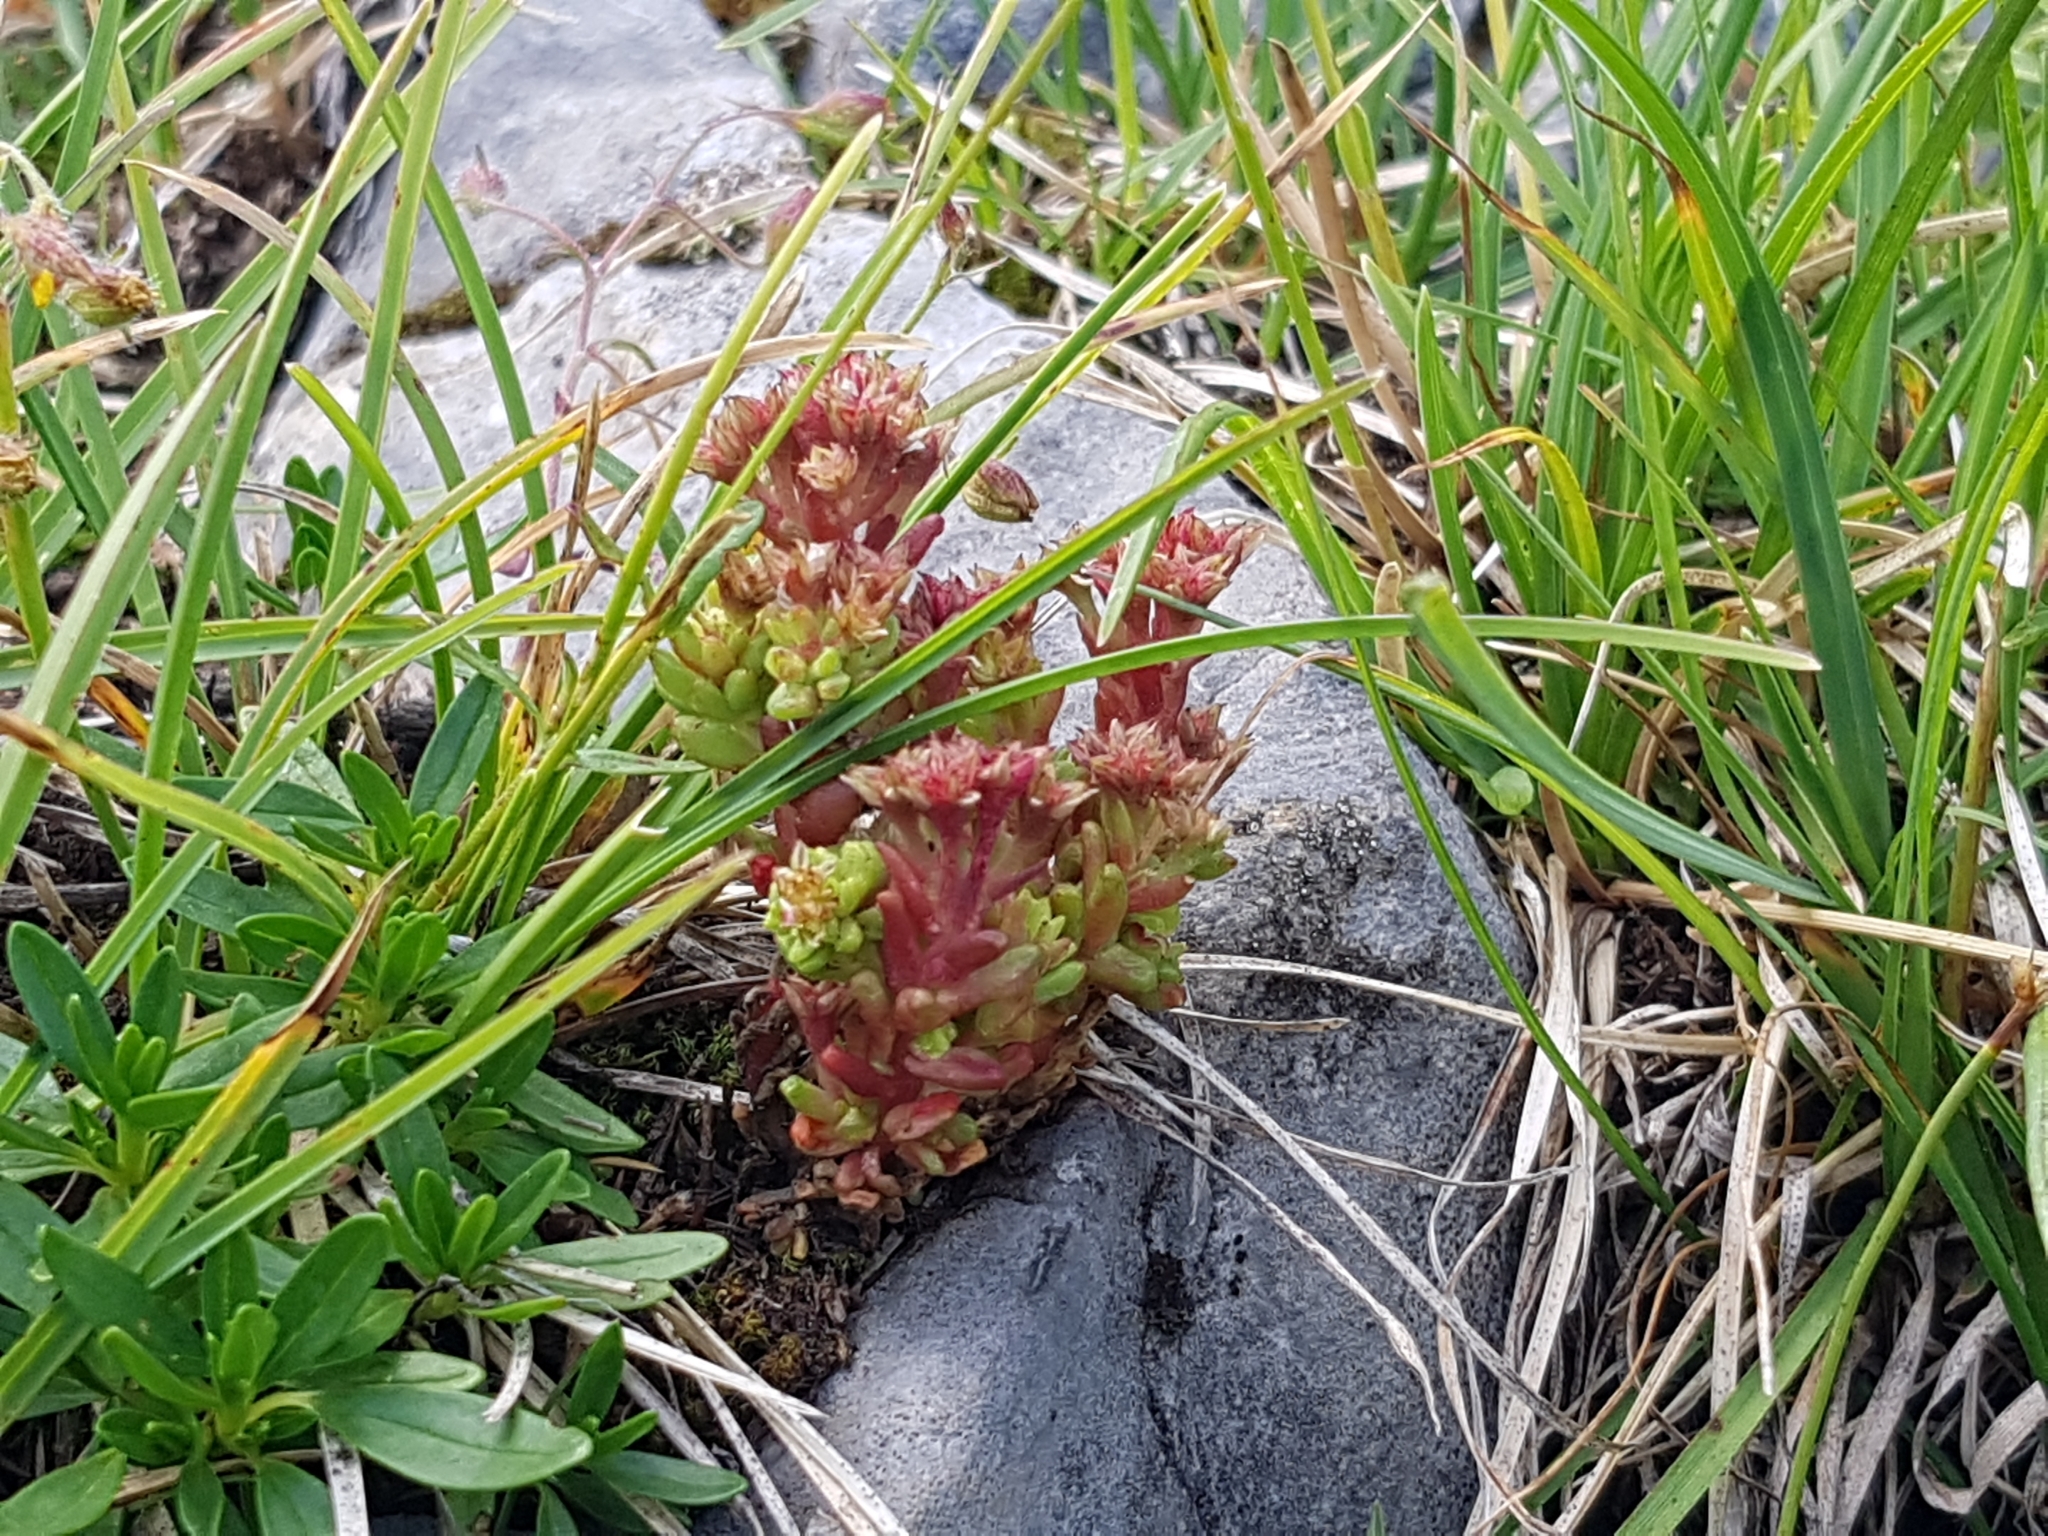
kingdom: Plantae
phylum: Tracheophyta
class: Magnoliopsida
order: Saxifragales
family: Crassulaceae
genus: Sedum
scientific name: Sedum atratum
